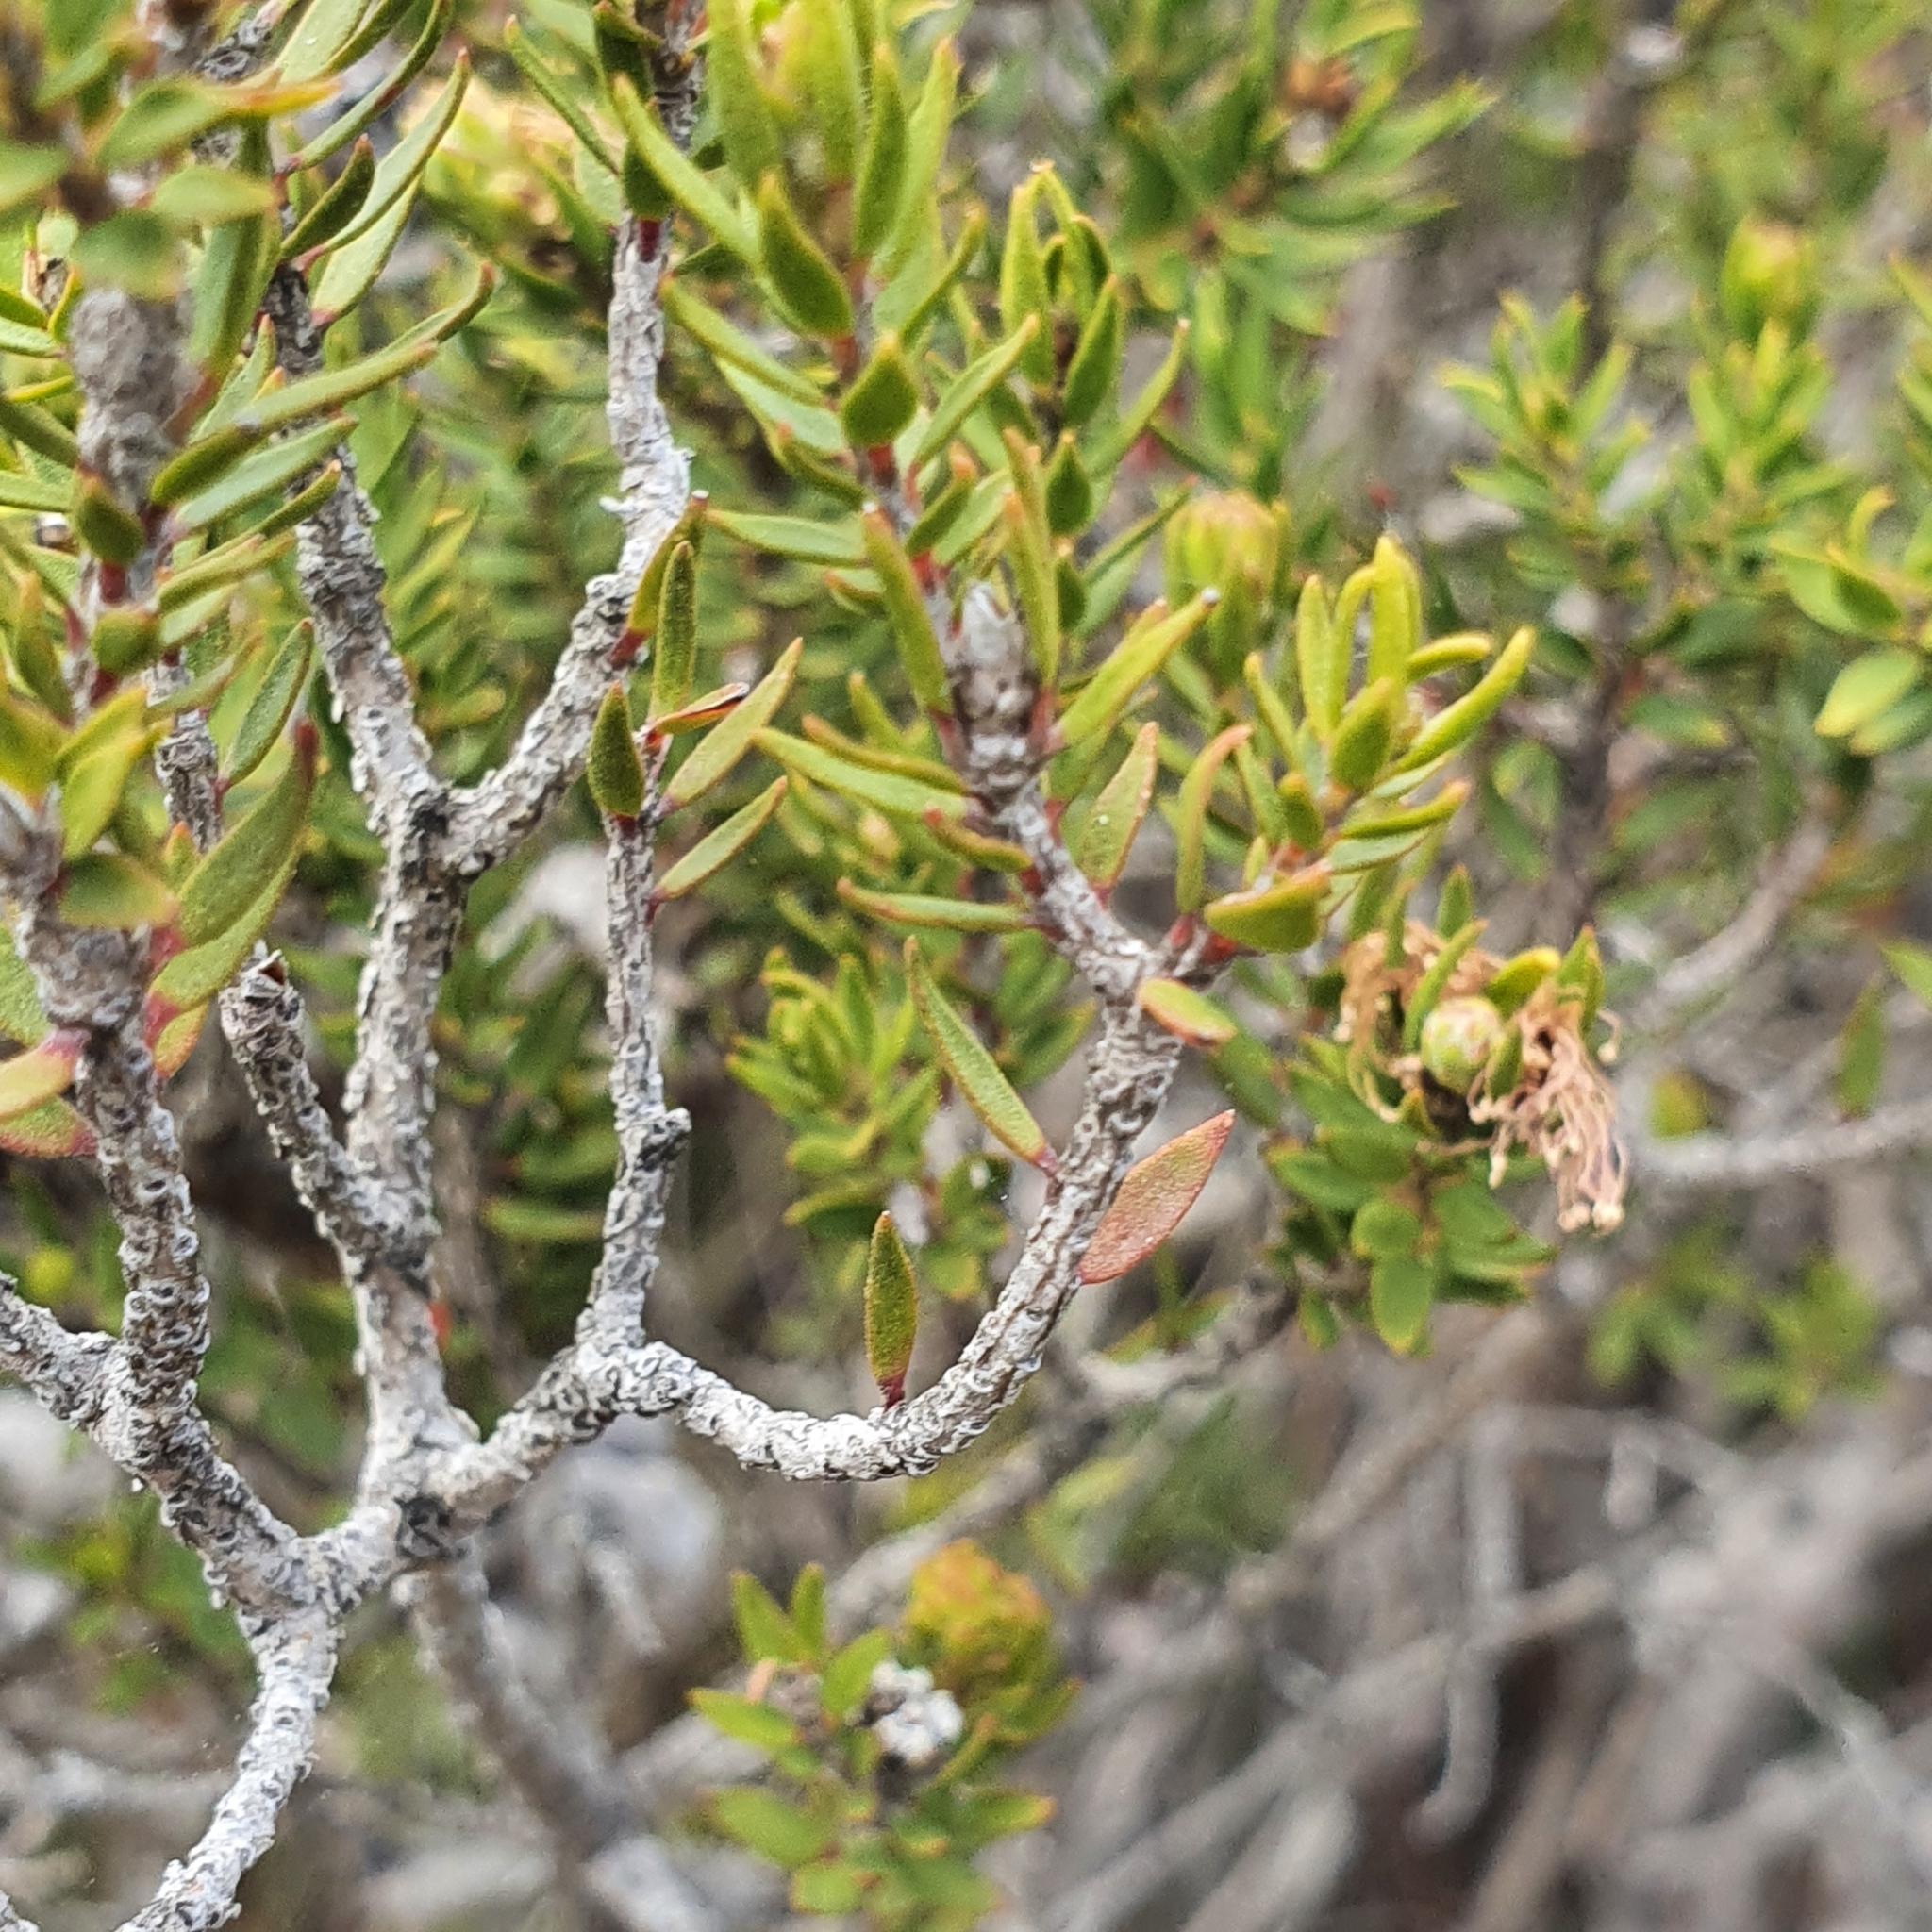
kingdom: Plantae
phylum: Tracheophyta
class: Magnoliopsida
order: Myrtales
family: Myrtaceae
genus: Melaleuca
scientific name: Melaleuca squamea
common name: Swamp melaleuca
